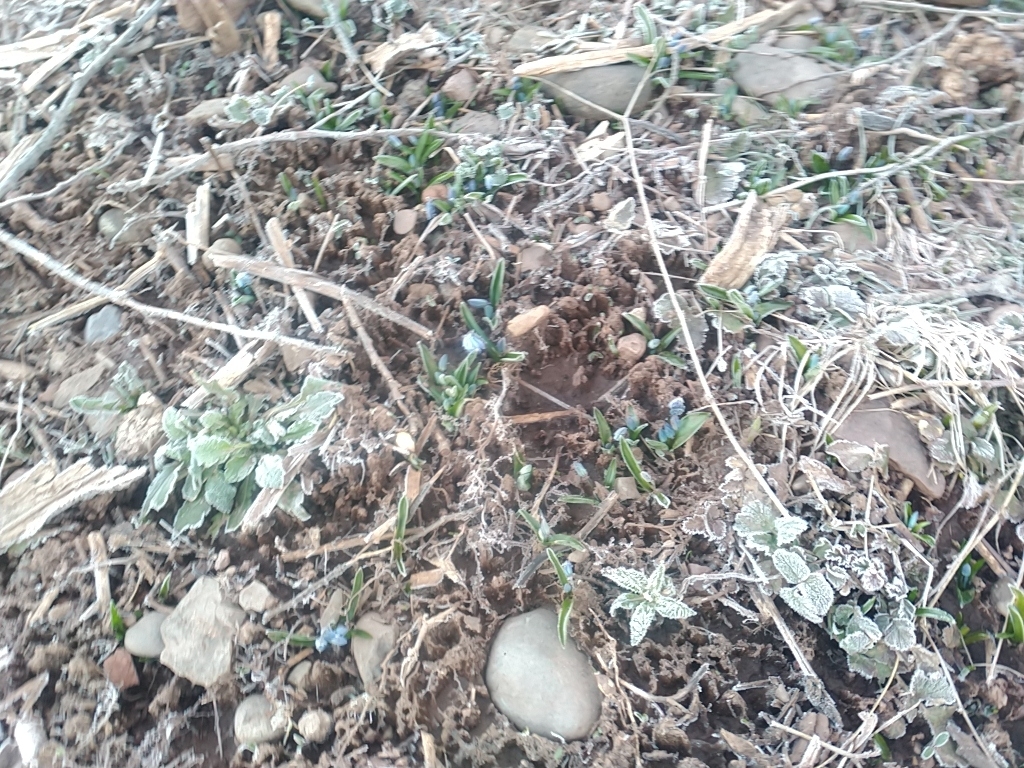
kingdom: Plantae
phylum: Tracheophyta
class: Liliopsida
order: Asparagales
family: Asparagaceae
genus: Scilla
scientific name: Scilla siberica
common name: Siberian squill
